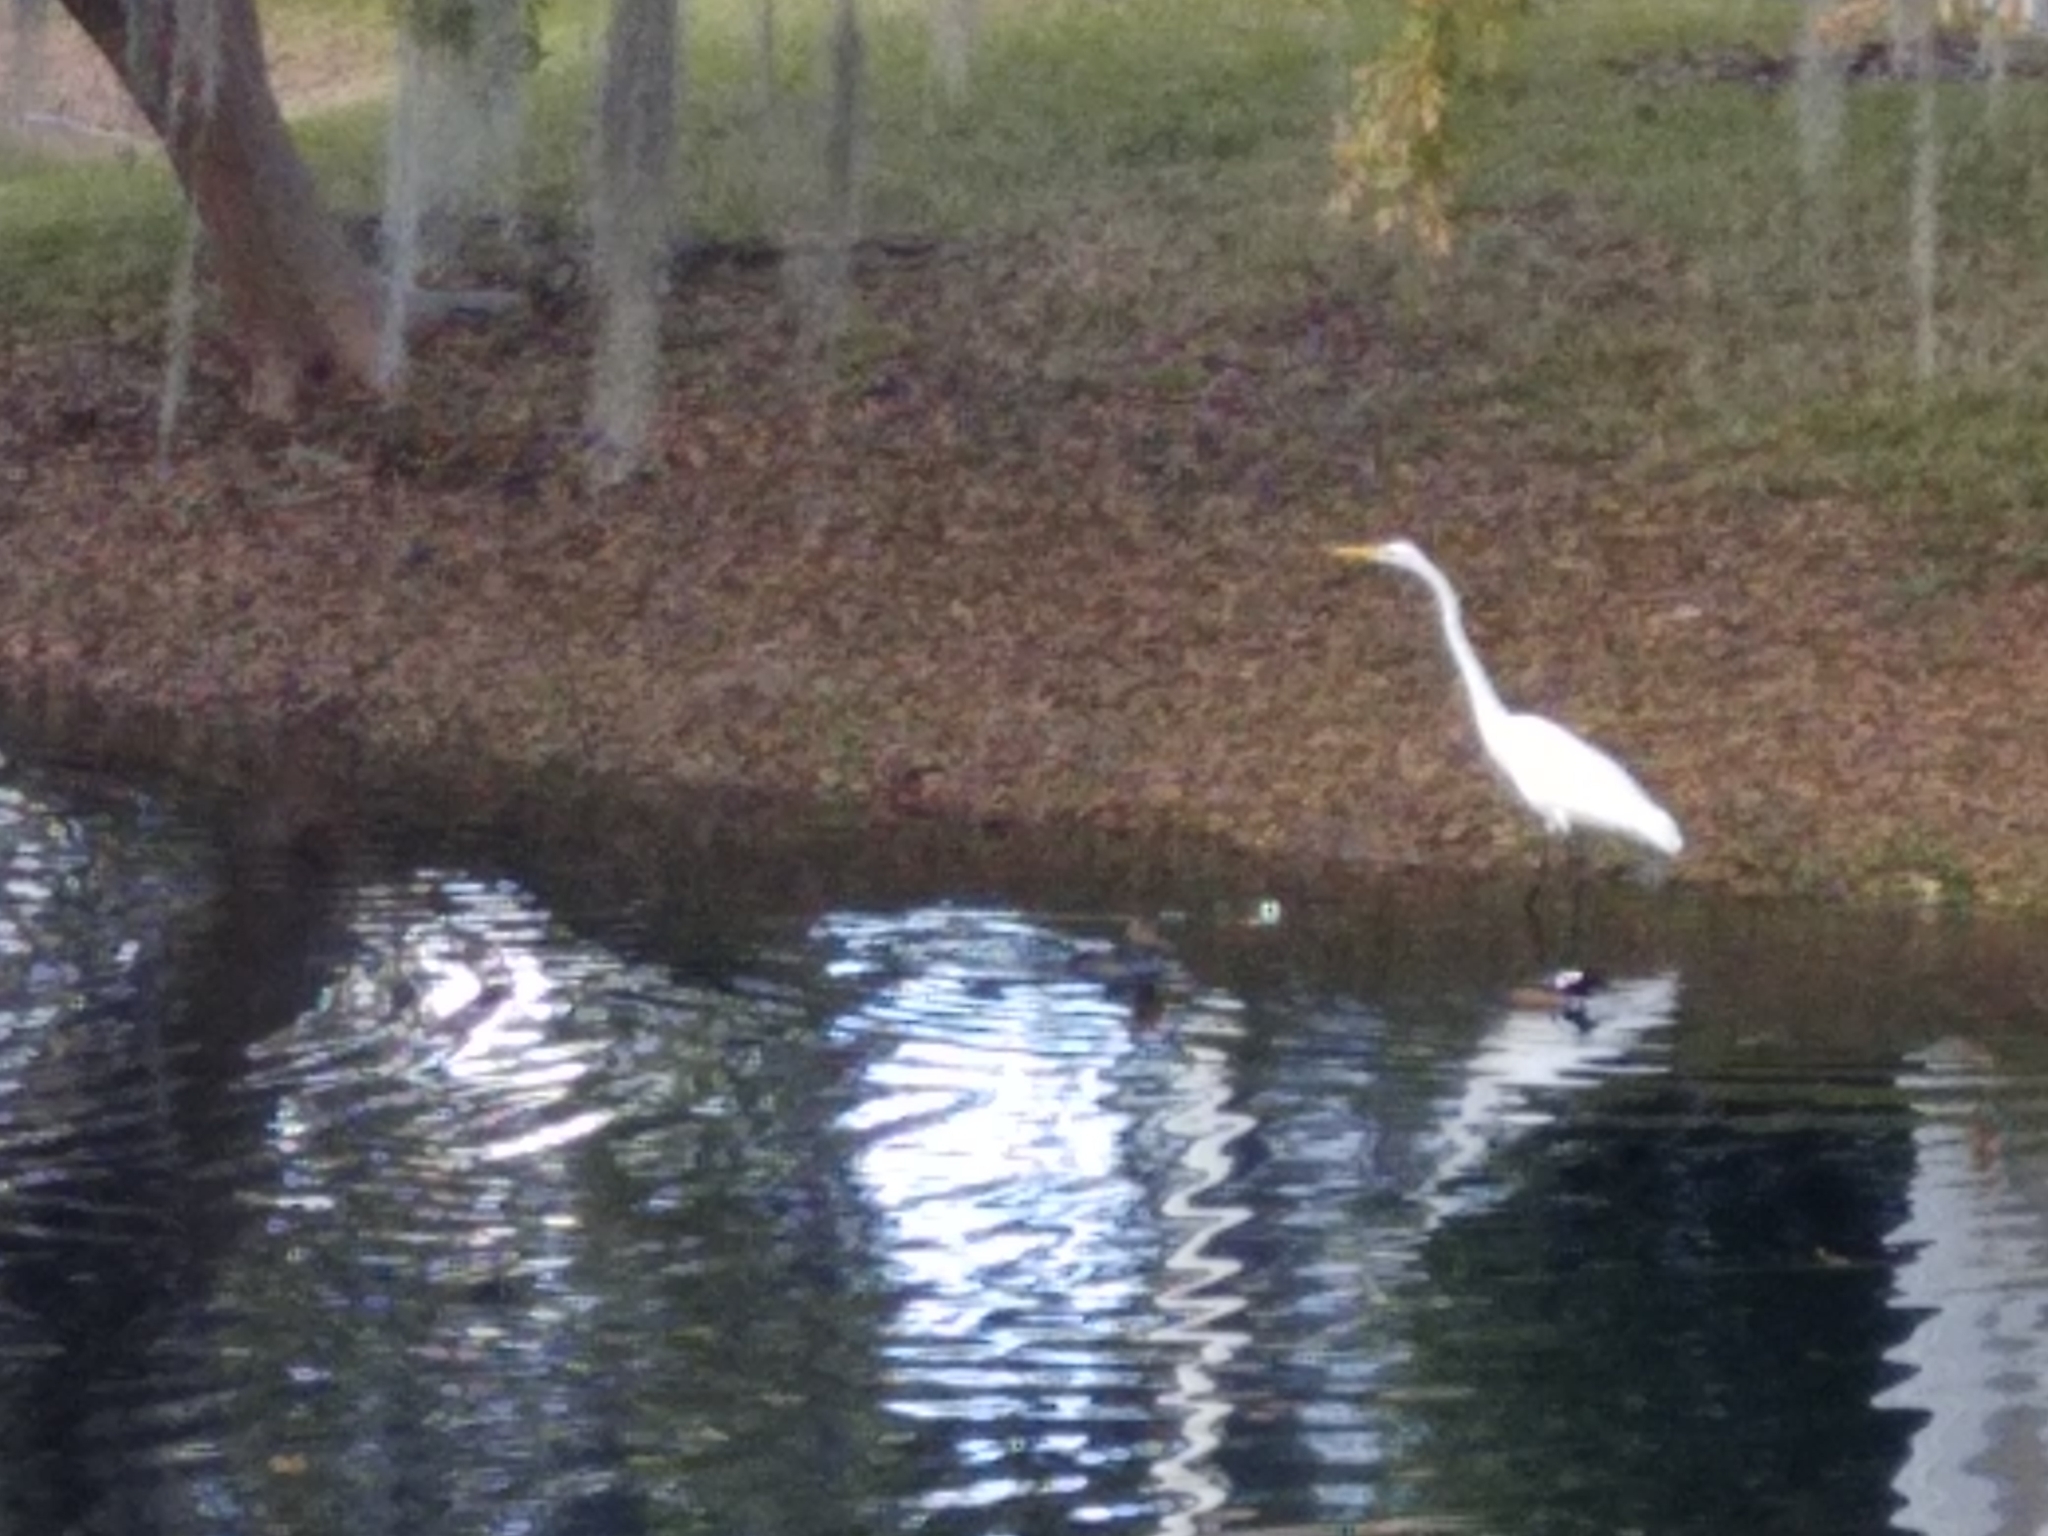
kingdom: Animalia
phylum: Chordata
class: Aves
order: Anseriformes
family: Anatidae
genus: Lophodytes
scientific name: Lophodytes cucullatus
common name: Hooded merganser
